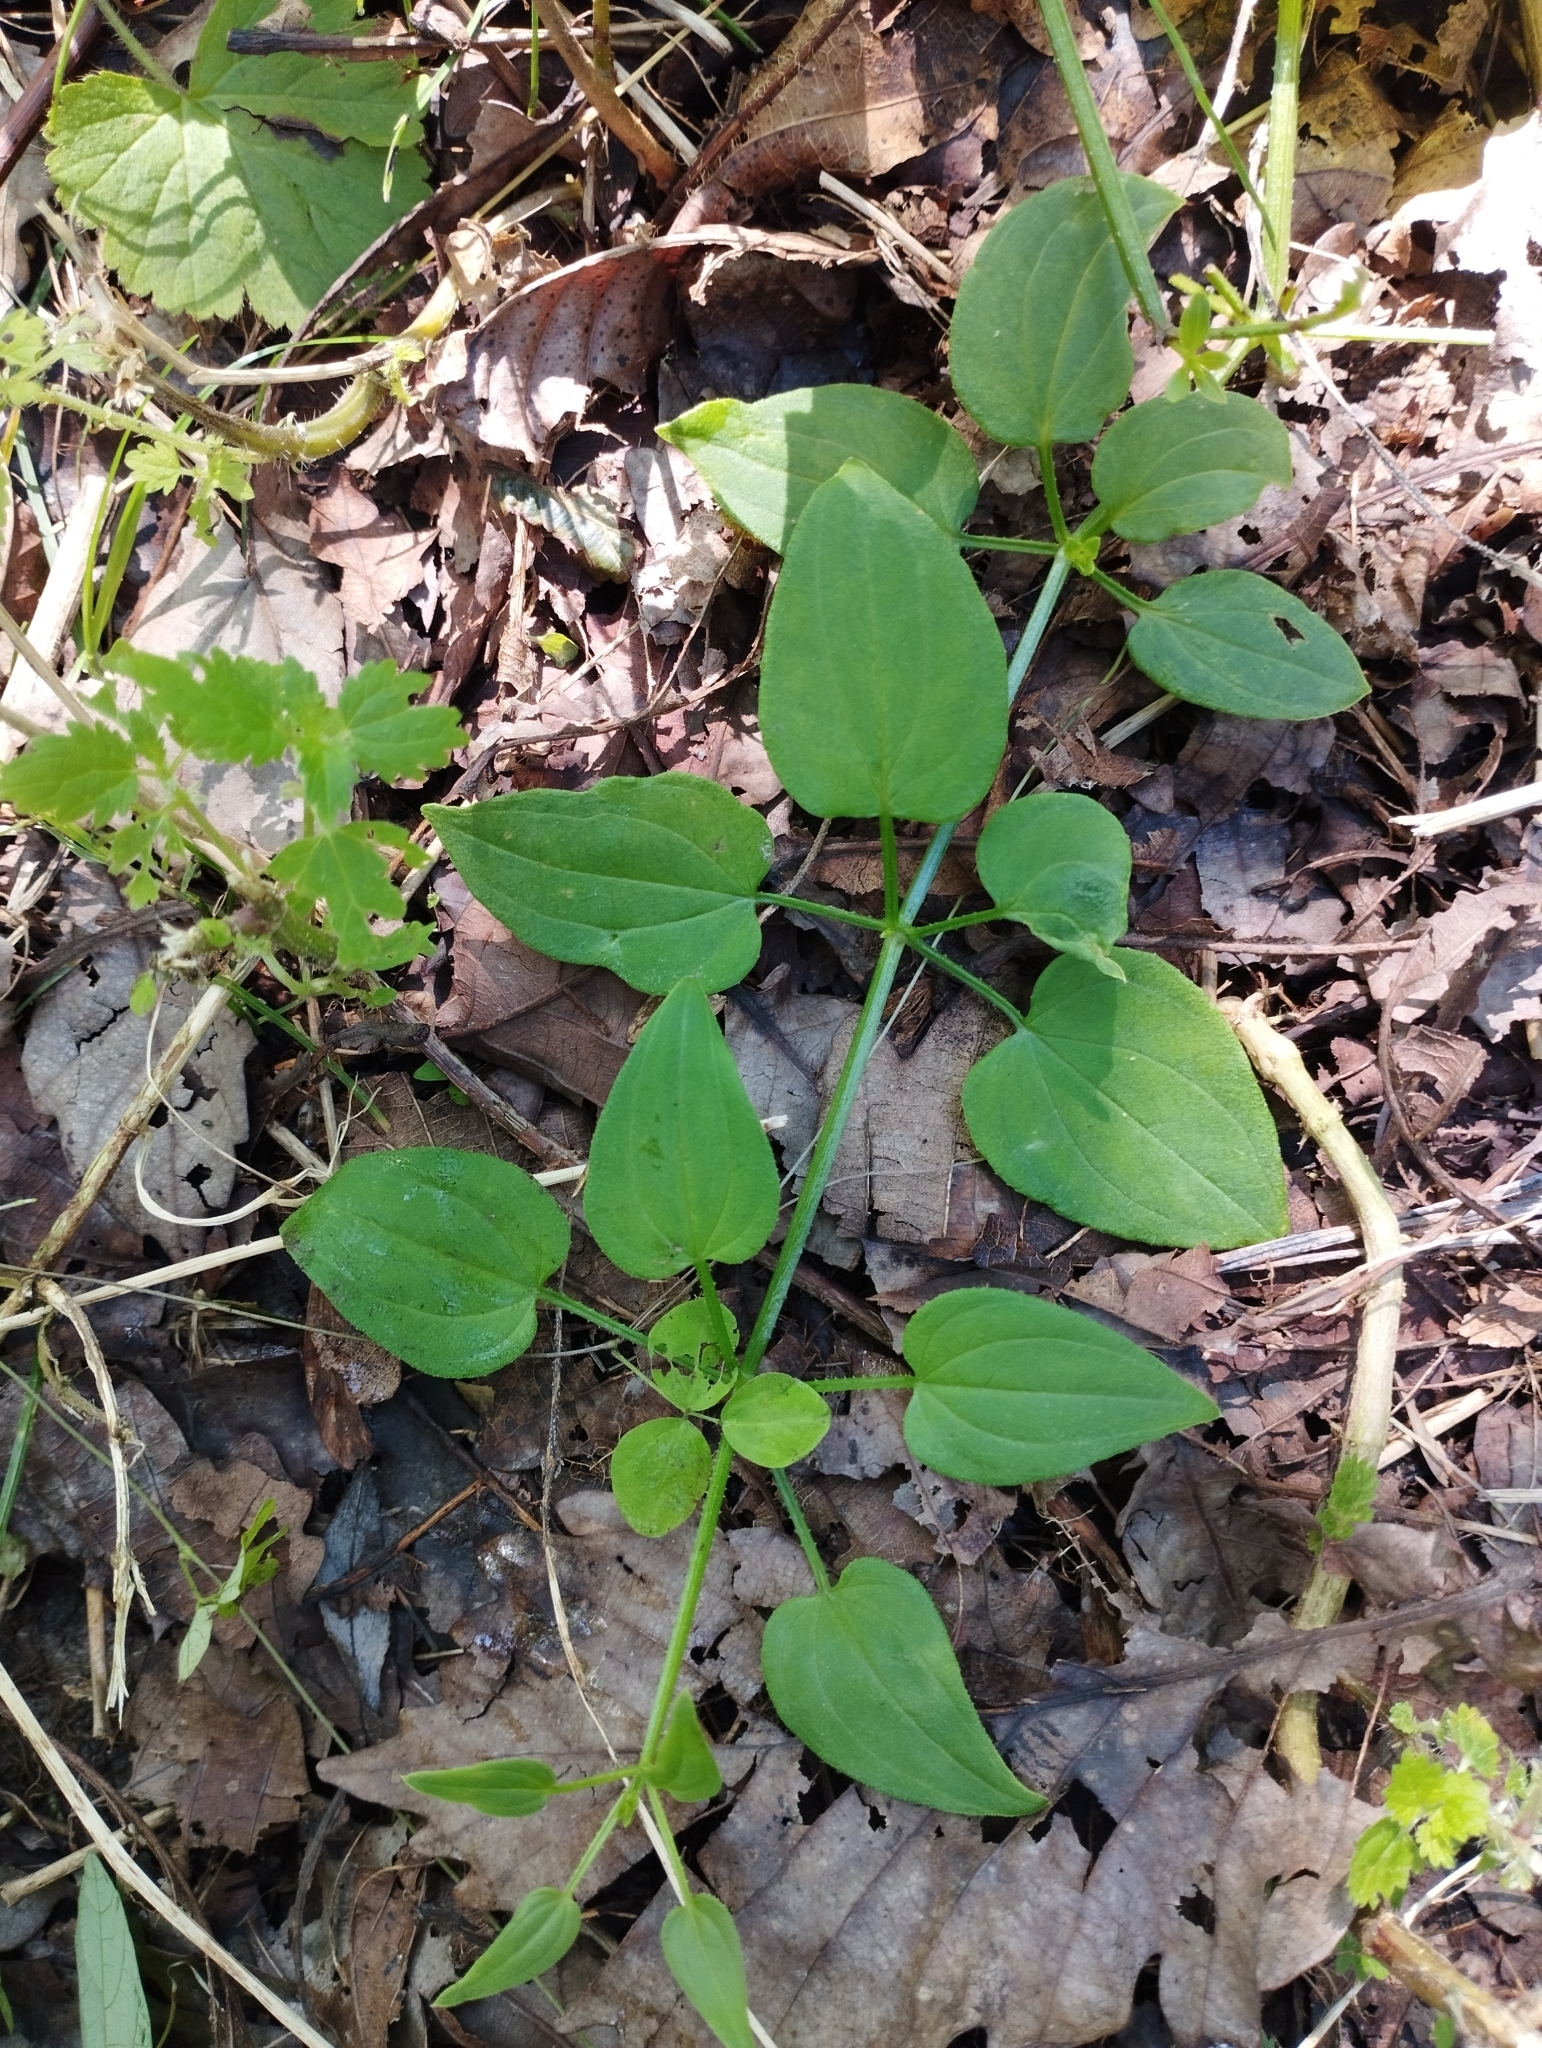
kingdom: Plantae
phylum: Tracheophyta
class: Magnoliopsida
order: Gentianales
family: Rubiaceae
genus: Rubia
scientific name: Rubia cordifolia
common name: Indian madder
